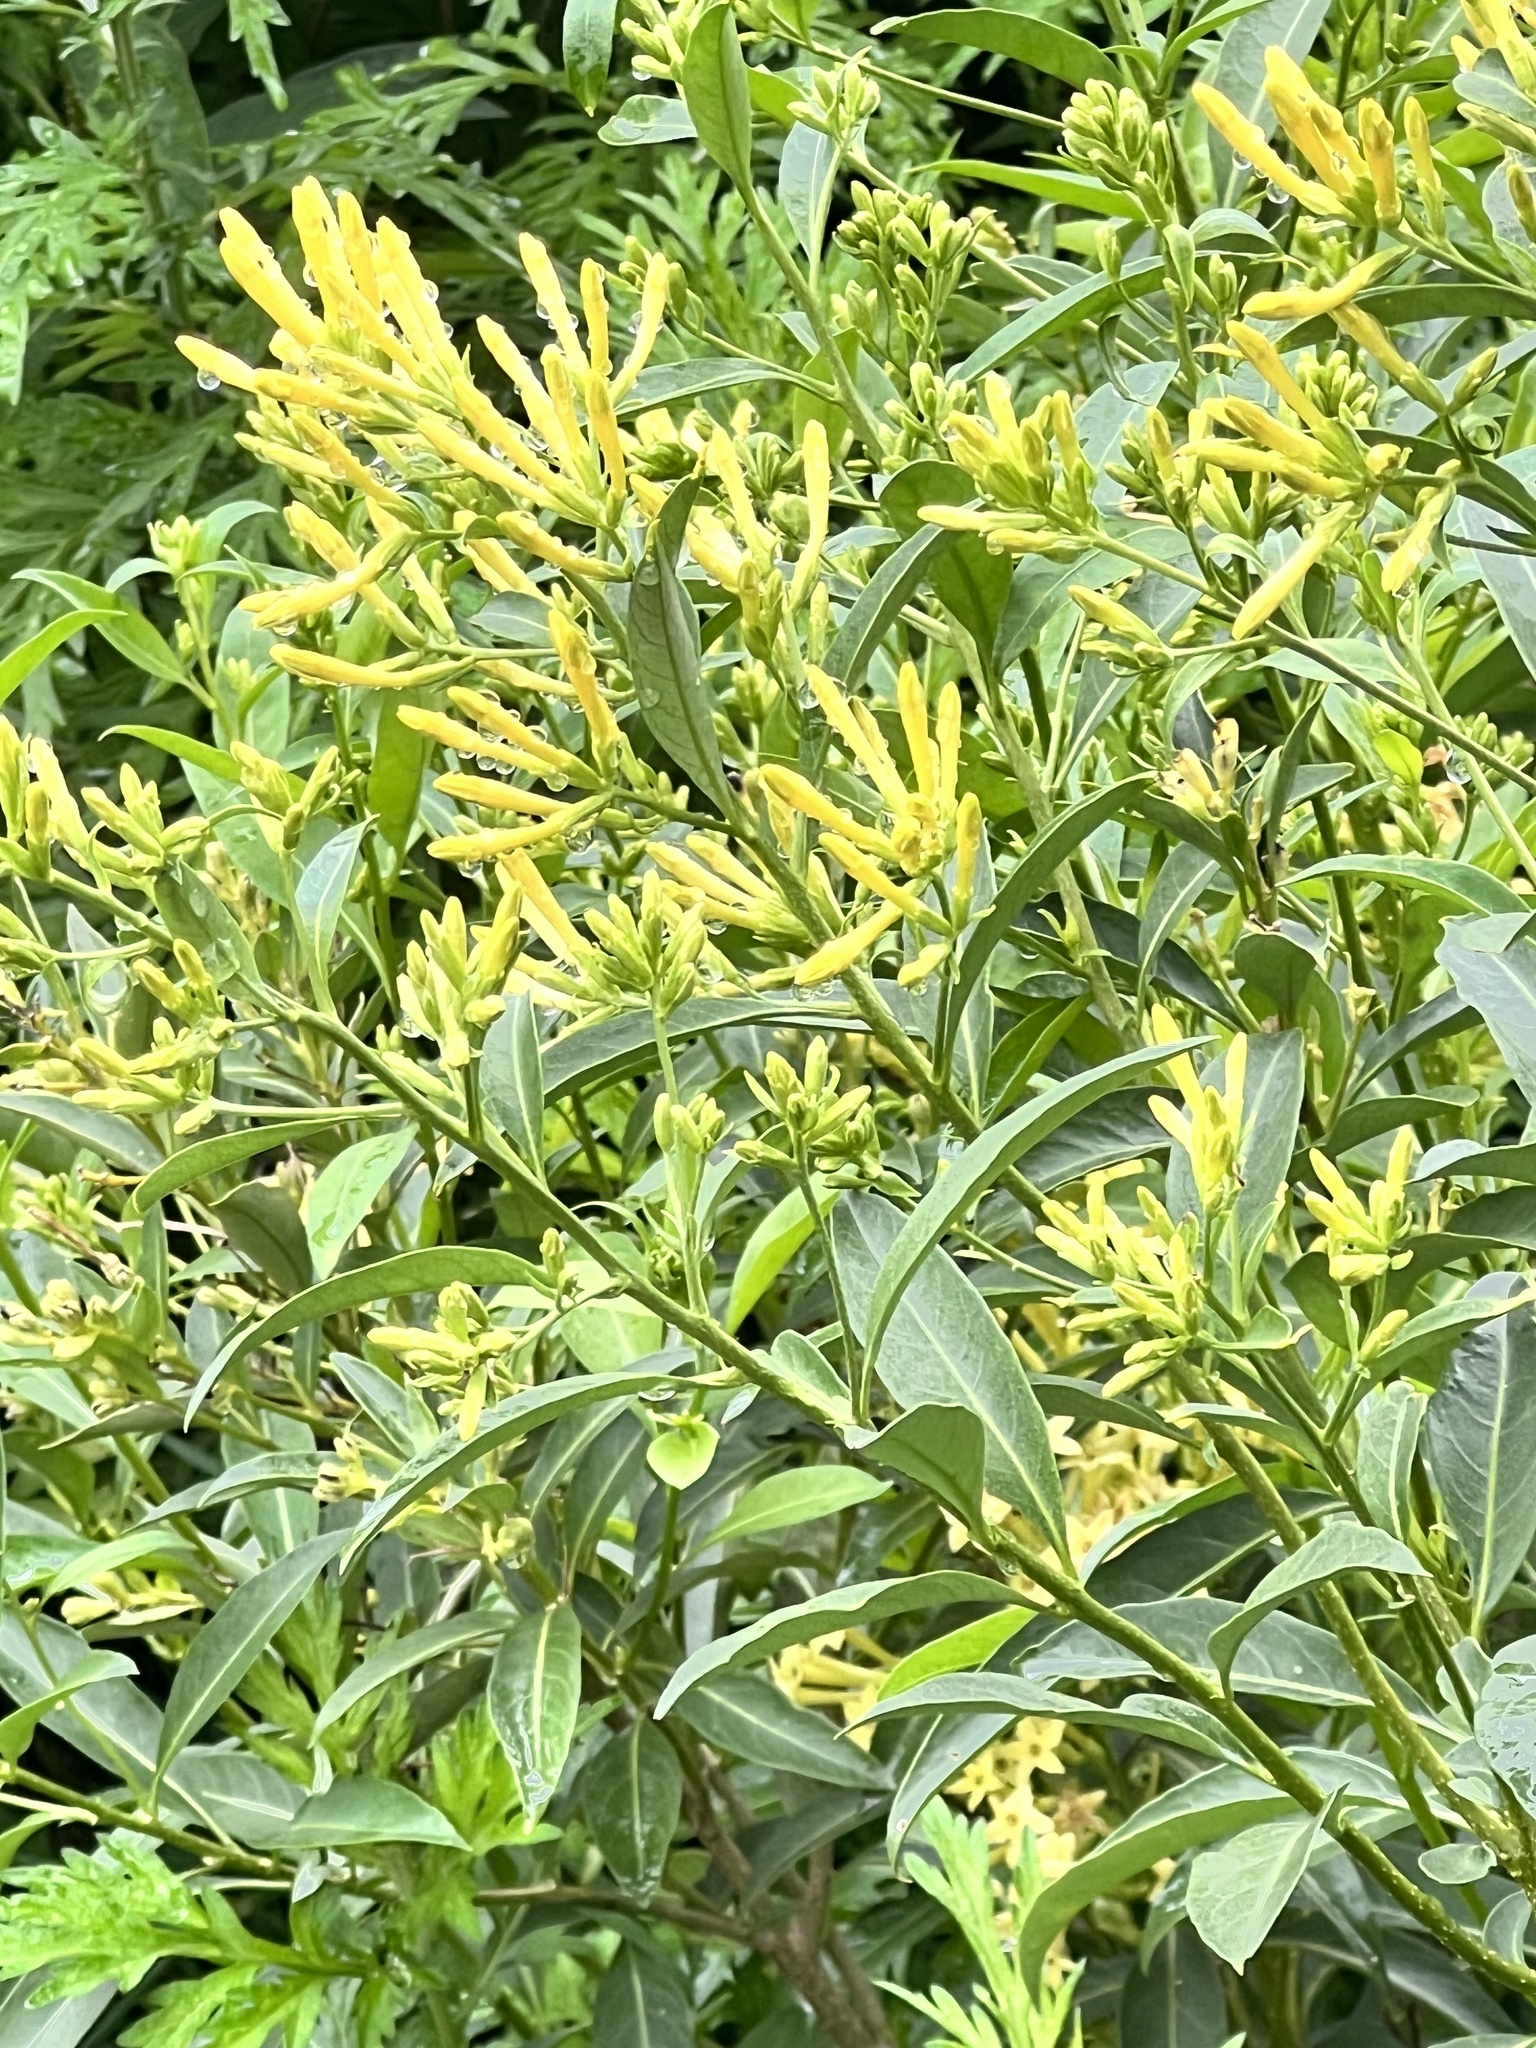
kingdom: Plantae
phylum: Tracheophyta
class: Magnoliopsida
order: Solanales
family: Solanaceae
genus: Cestrum
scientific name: Cestrum parqui
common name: Chilean cestrum
